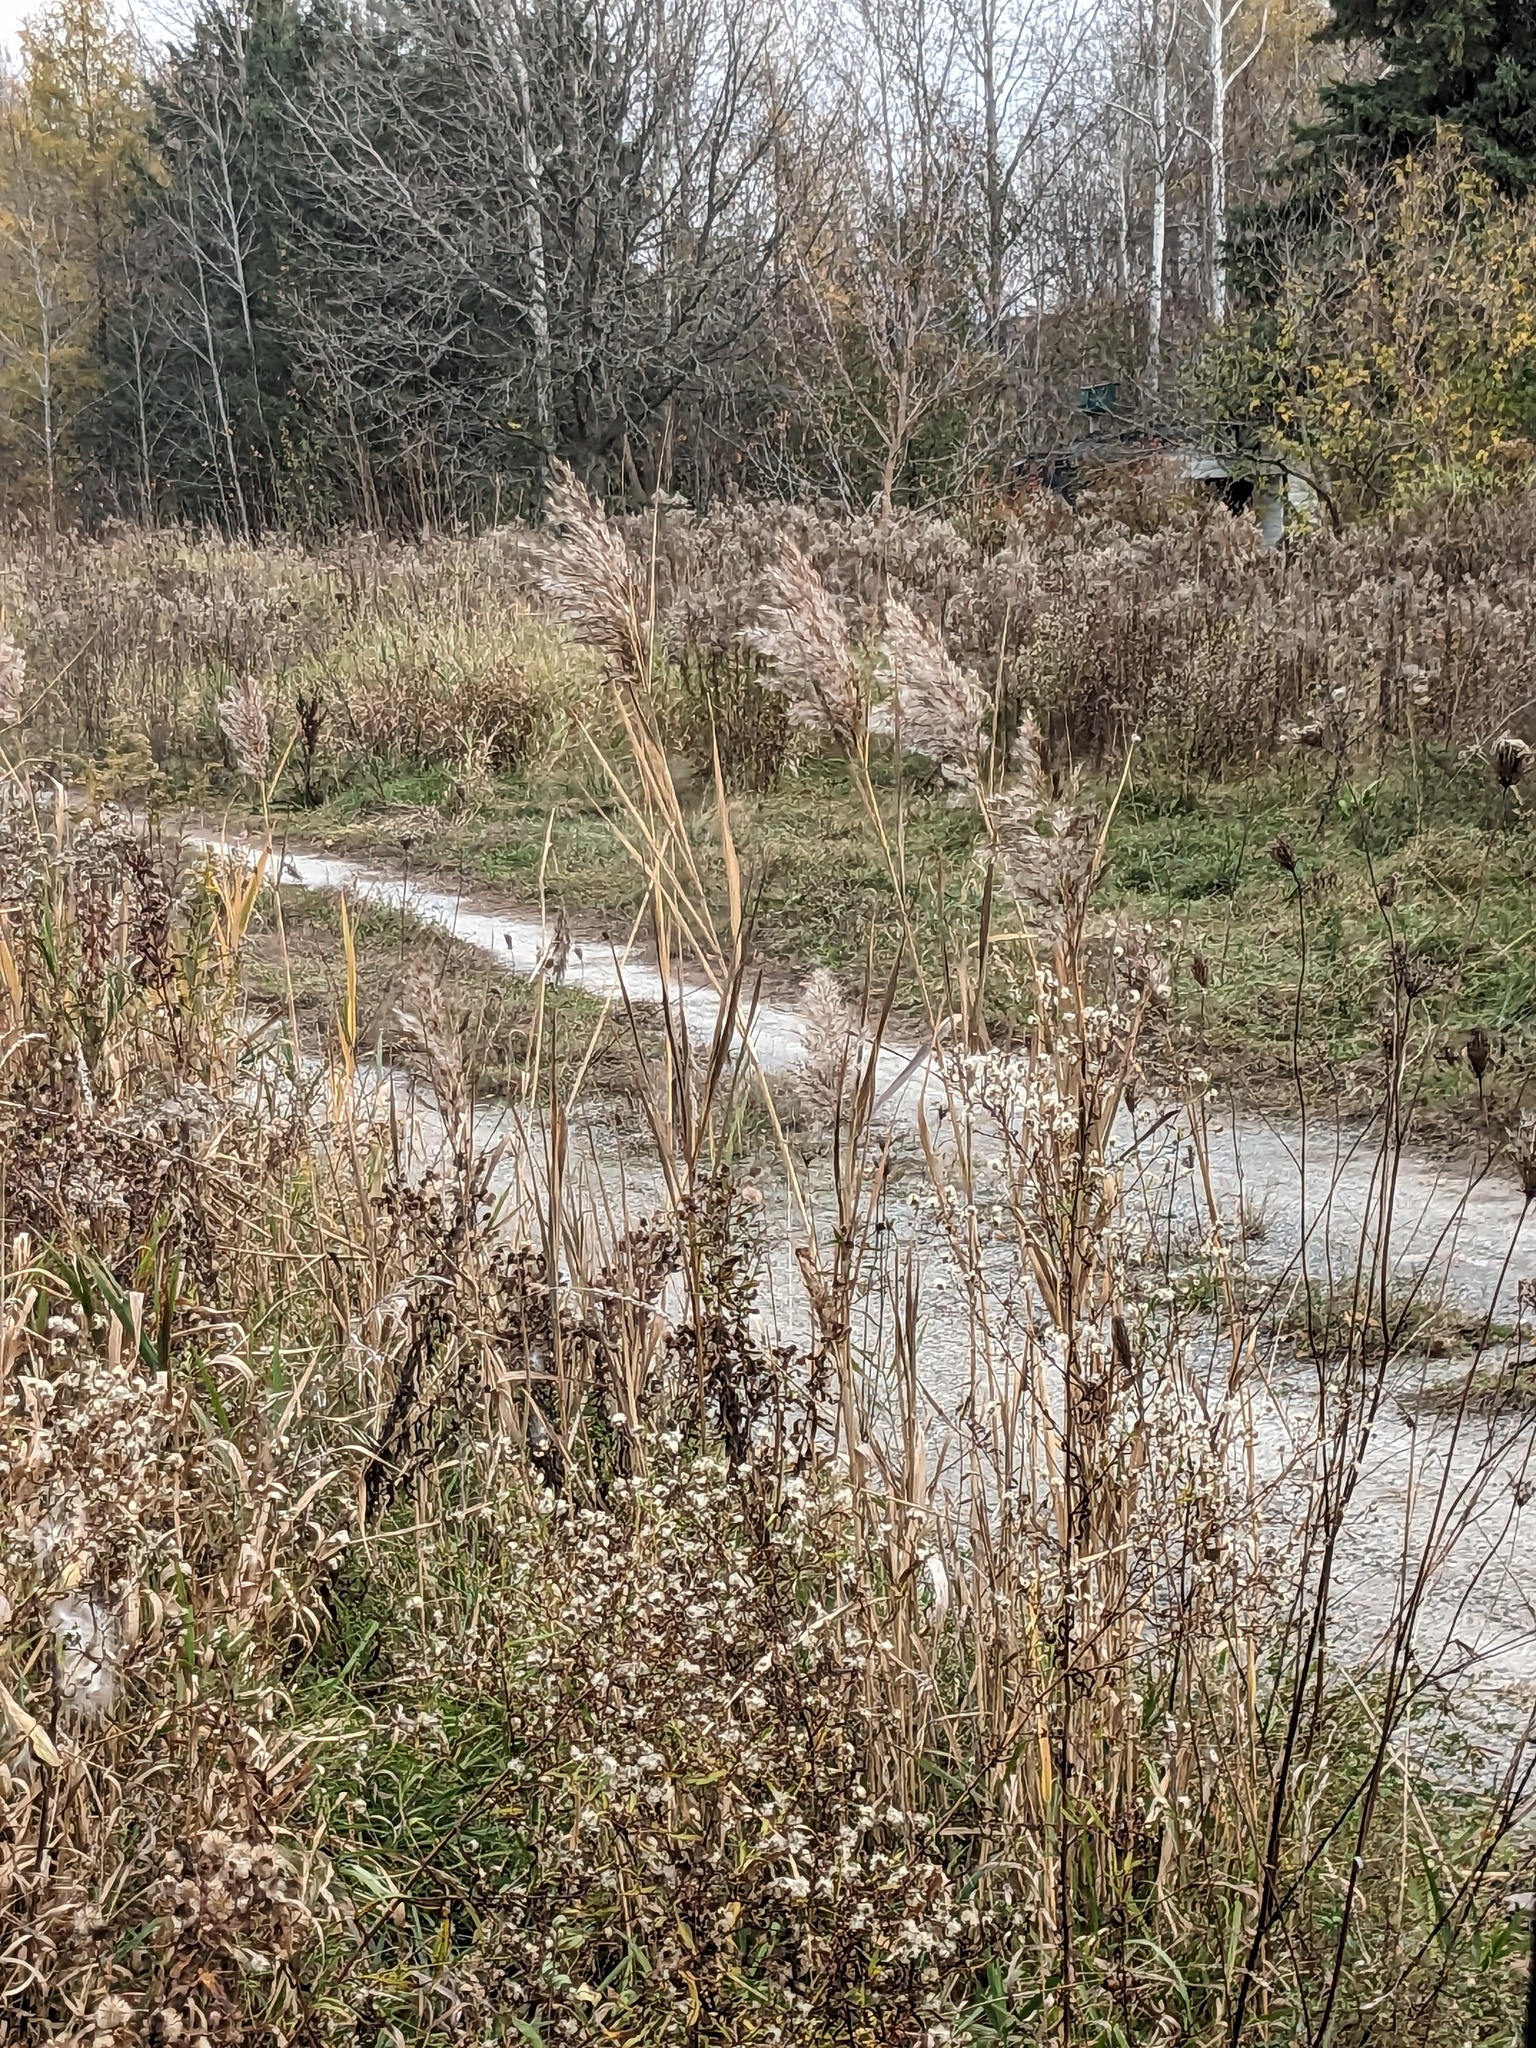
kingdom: Plantae
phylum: Tracheophyta
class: Liliopsida
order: Poales
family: Poaceae
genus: Phragmites
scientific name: Phragmites australis
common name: Common reed
